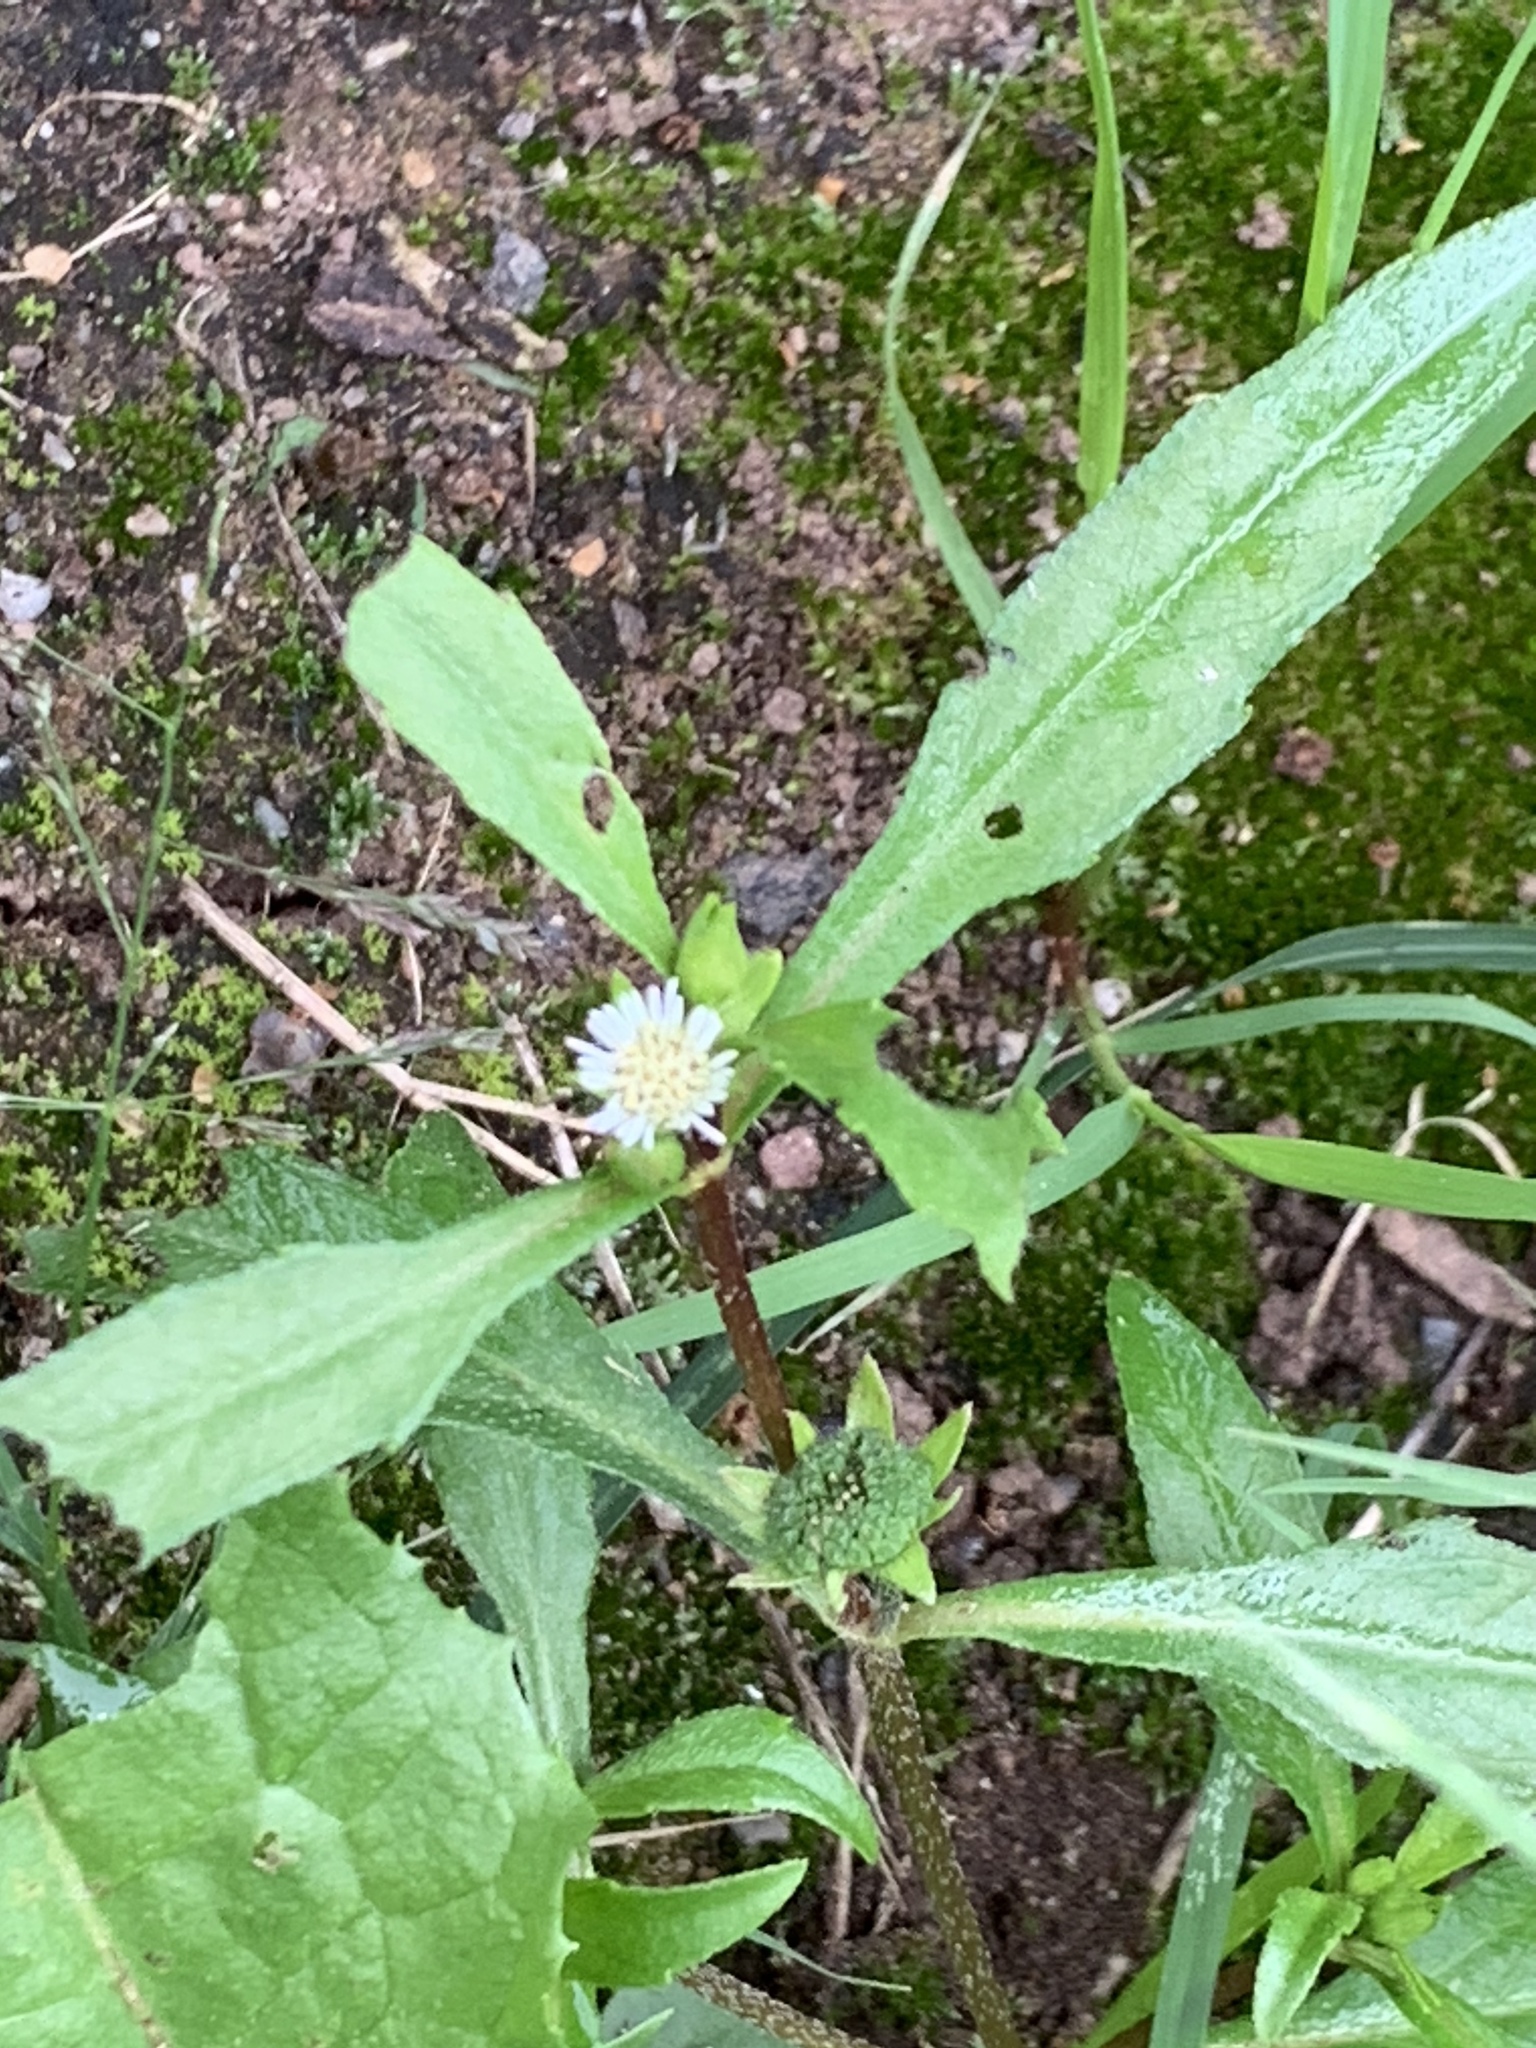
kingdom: Plantae
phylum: Tracheophyta
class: Magnoliopsida
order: Asterales
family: Asteraceae
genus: Eclipta
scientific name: Eclipta prostrata
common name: False daisy
